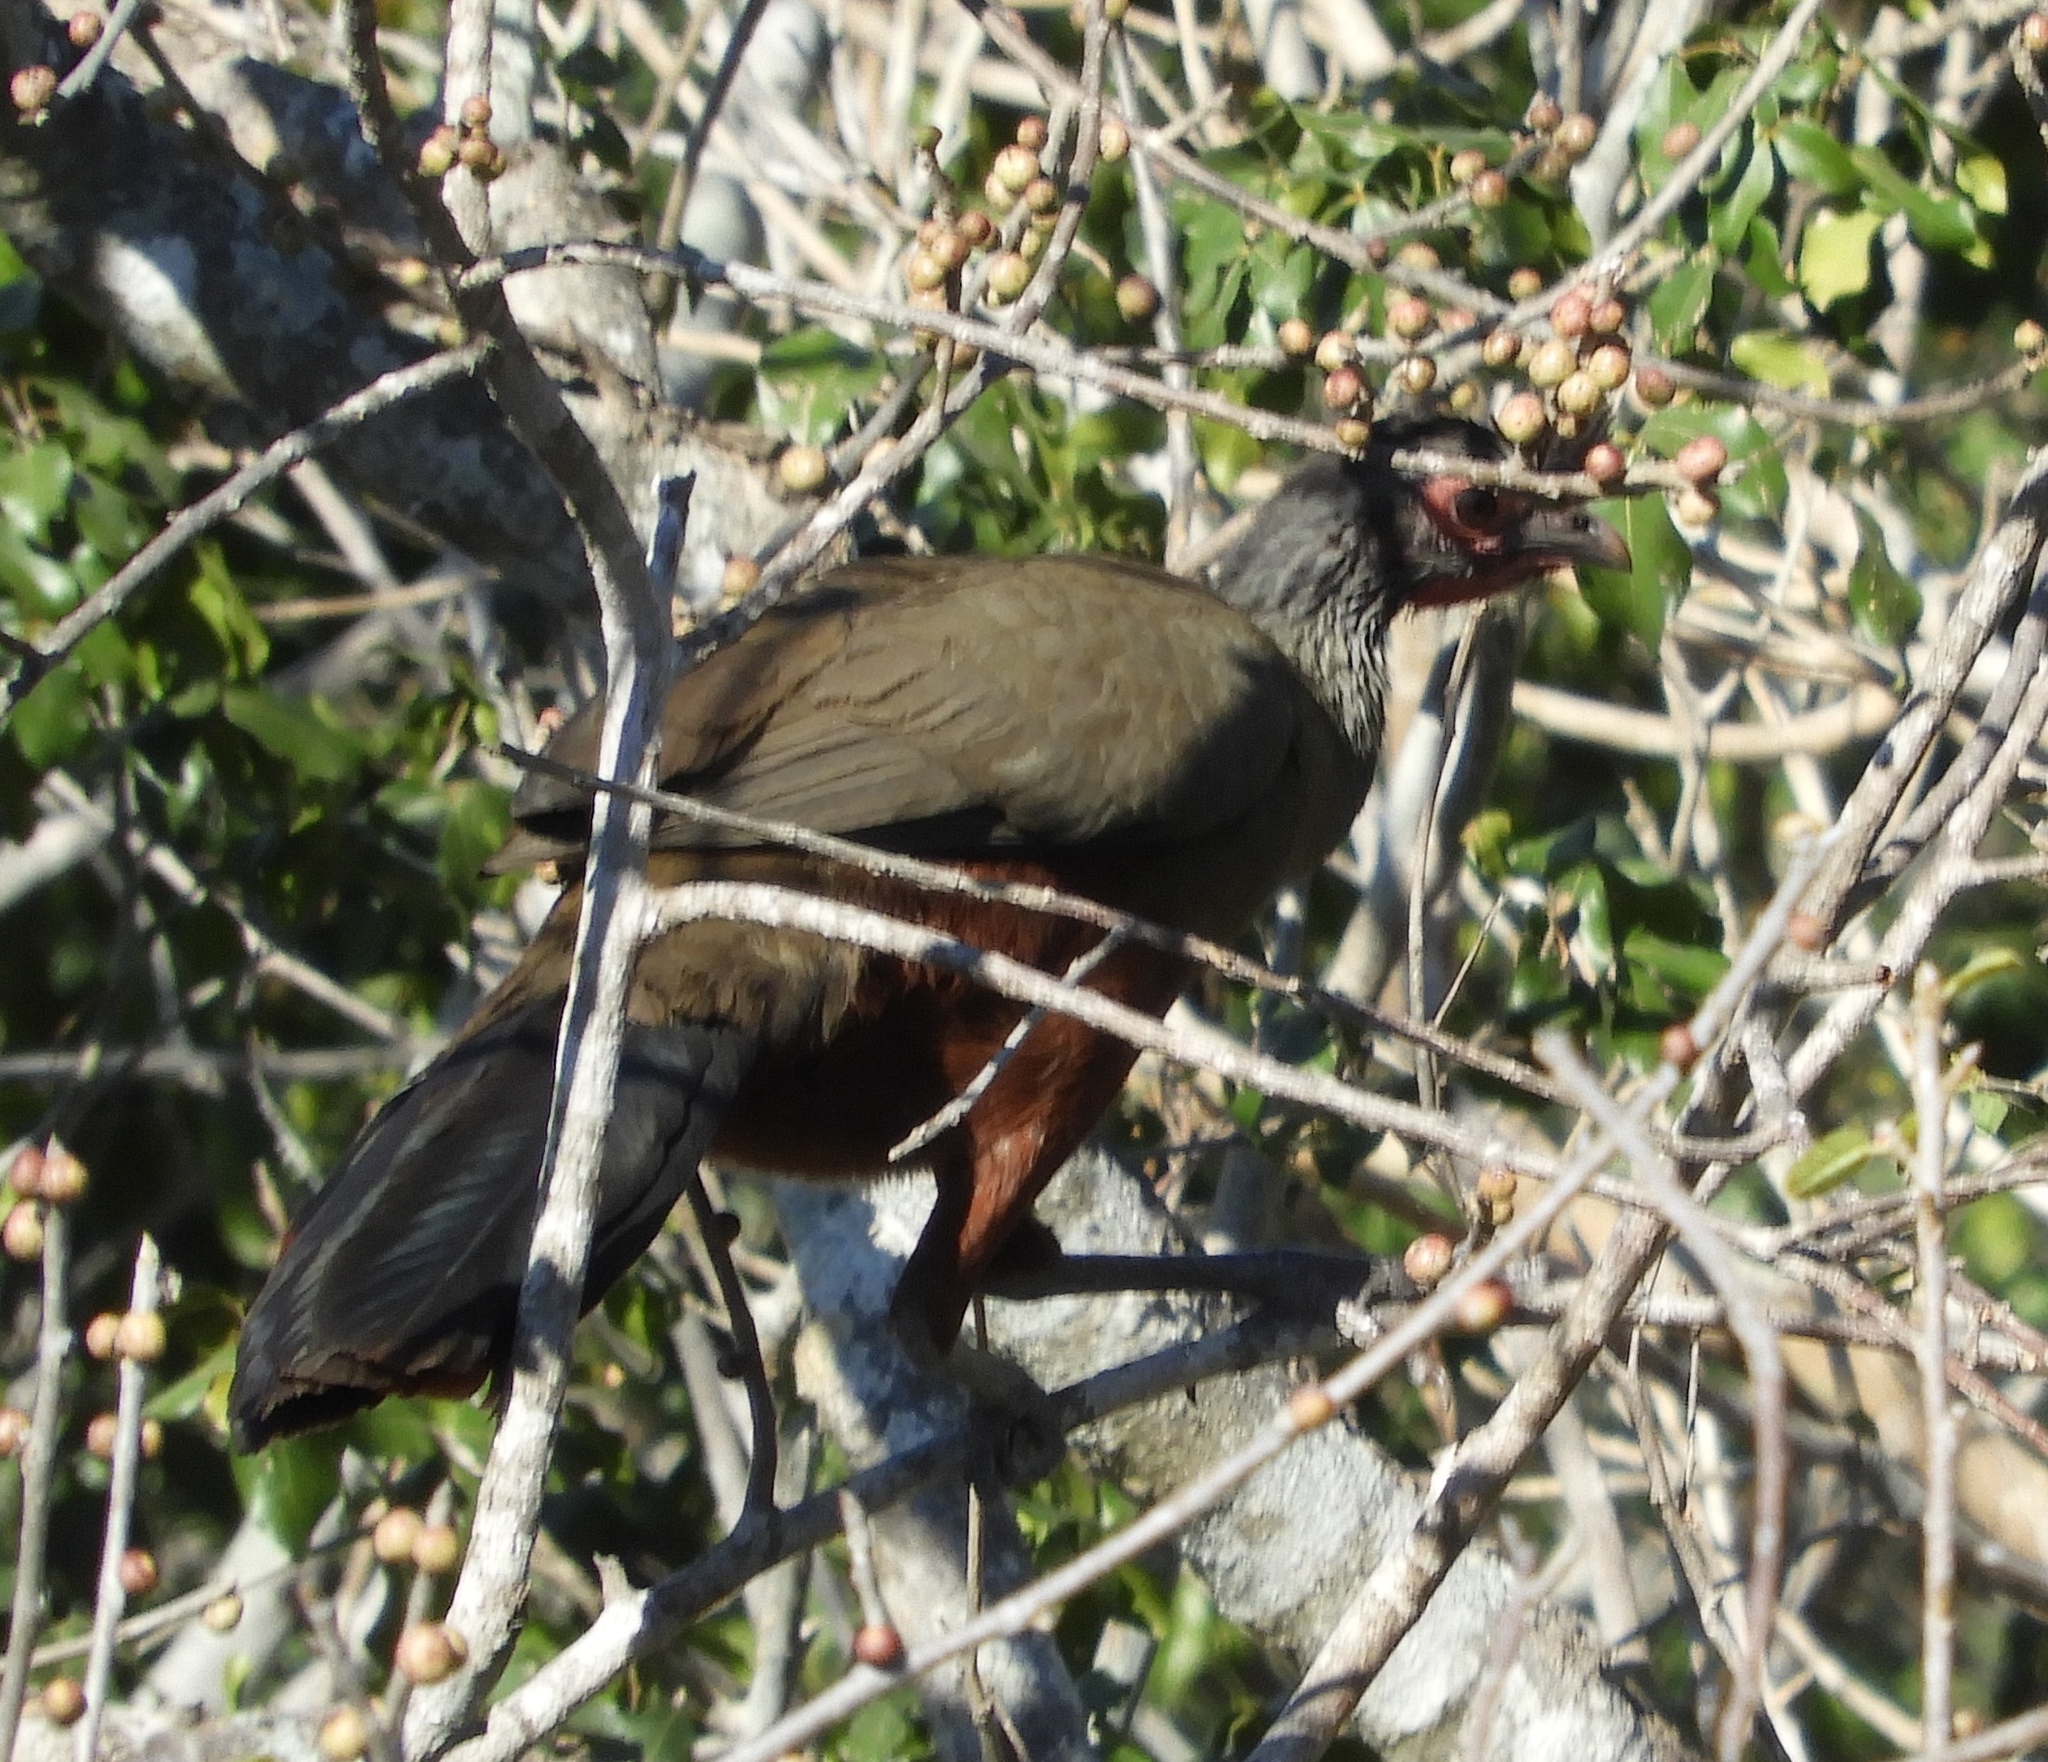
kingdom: Animalia
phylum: Chordata
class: Aves
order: Galliformes
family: Cracidae
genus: Ortalis
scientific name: Ortalis wagleri
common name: Rufous-bellied chachalaca
